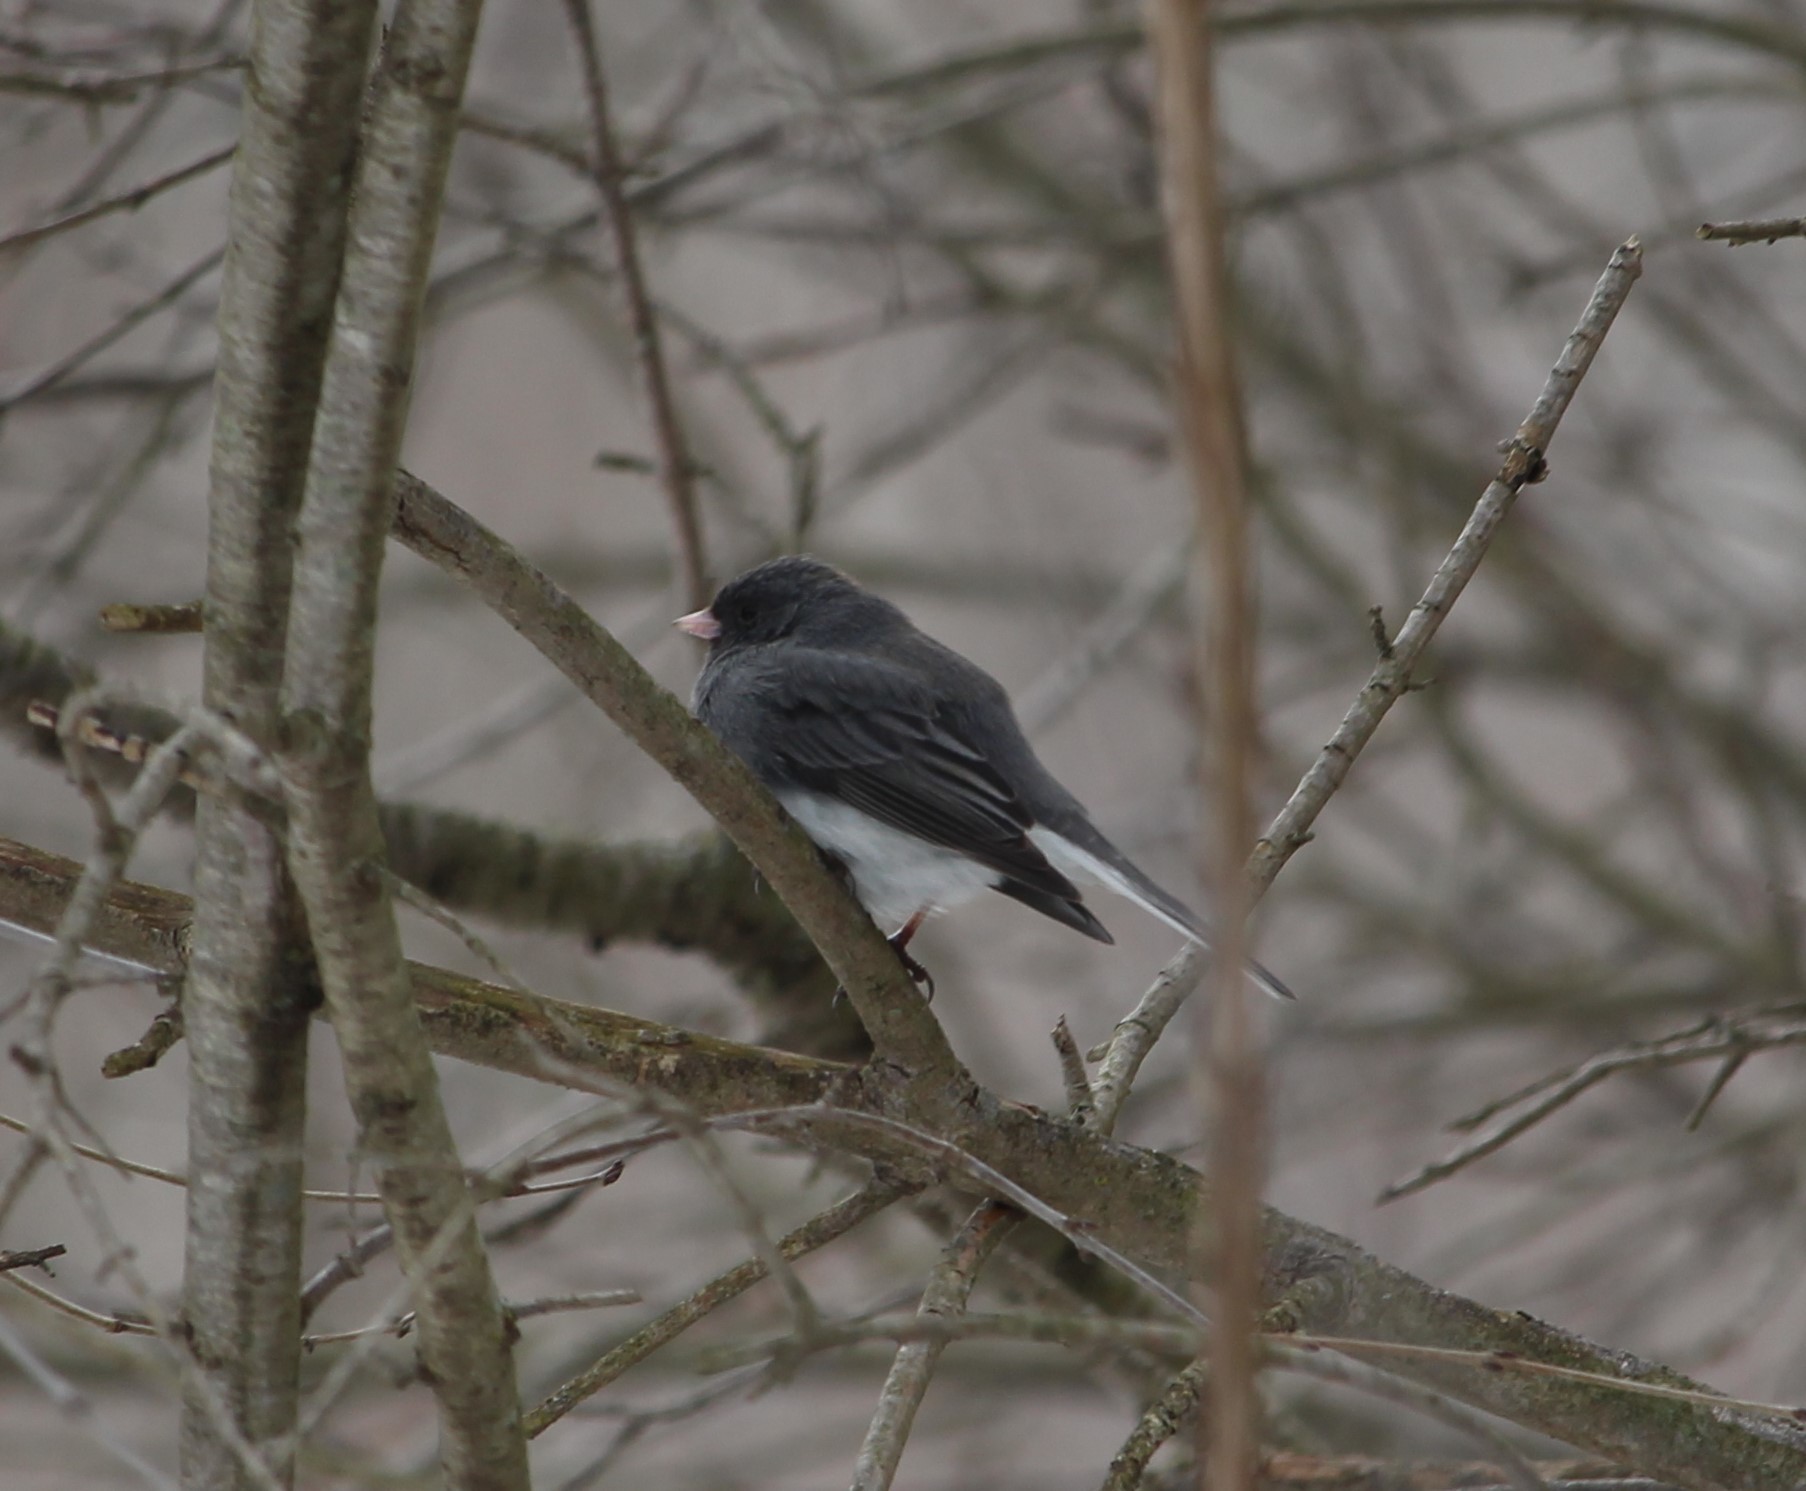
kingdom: Animalia
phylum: Chordata
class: Aves
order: Passeriformes
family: Passerellidae
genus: Junco
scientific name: Junco hyemalis
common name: Dark-eyed junco
